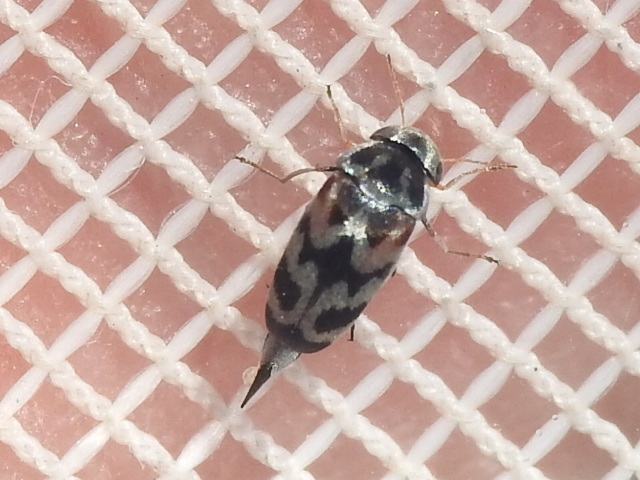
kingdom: Animalia
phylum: Arthropoda
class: Insecta
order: Coleoptera
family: Mordellidae
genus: Paramordellaria
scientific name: Paramordellaria carinata
